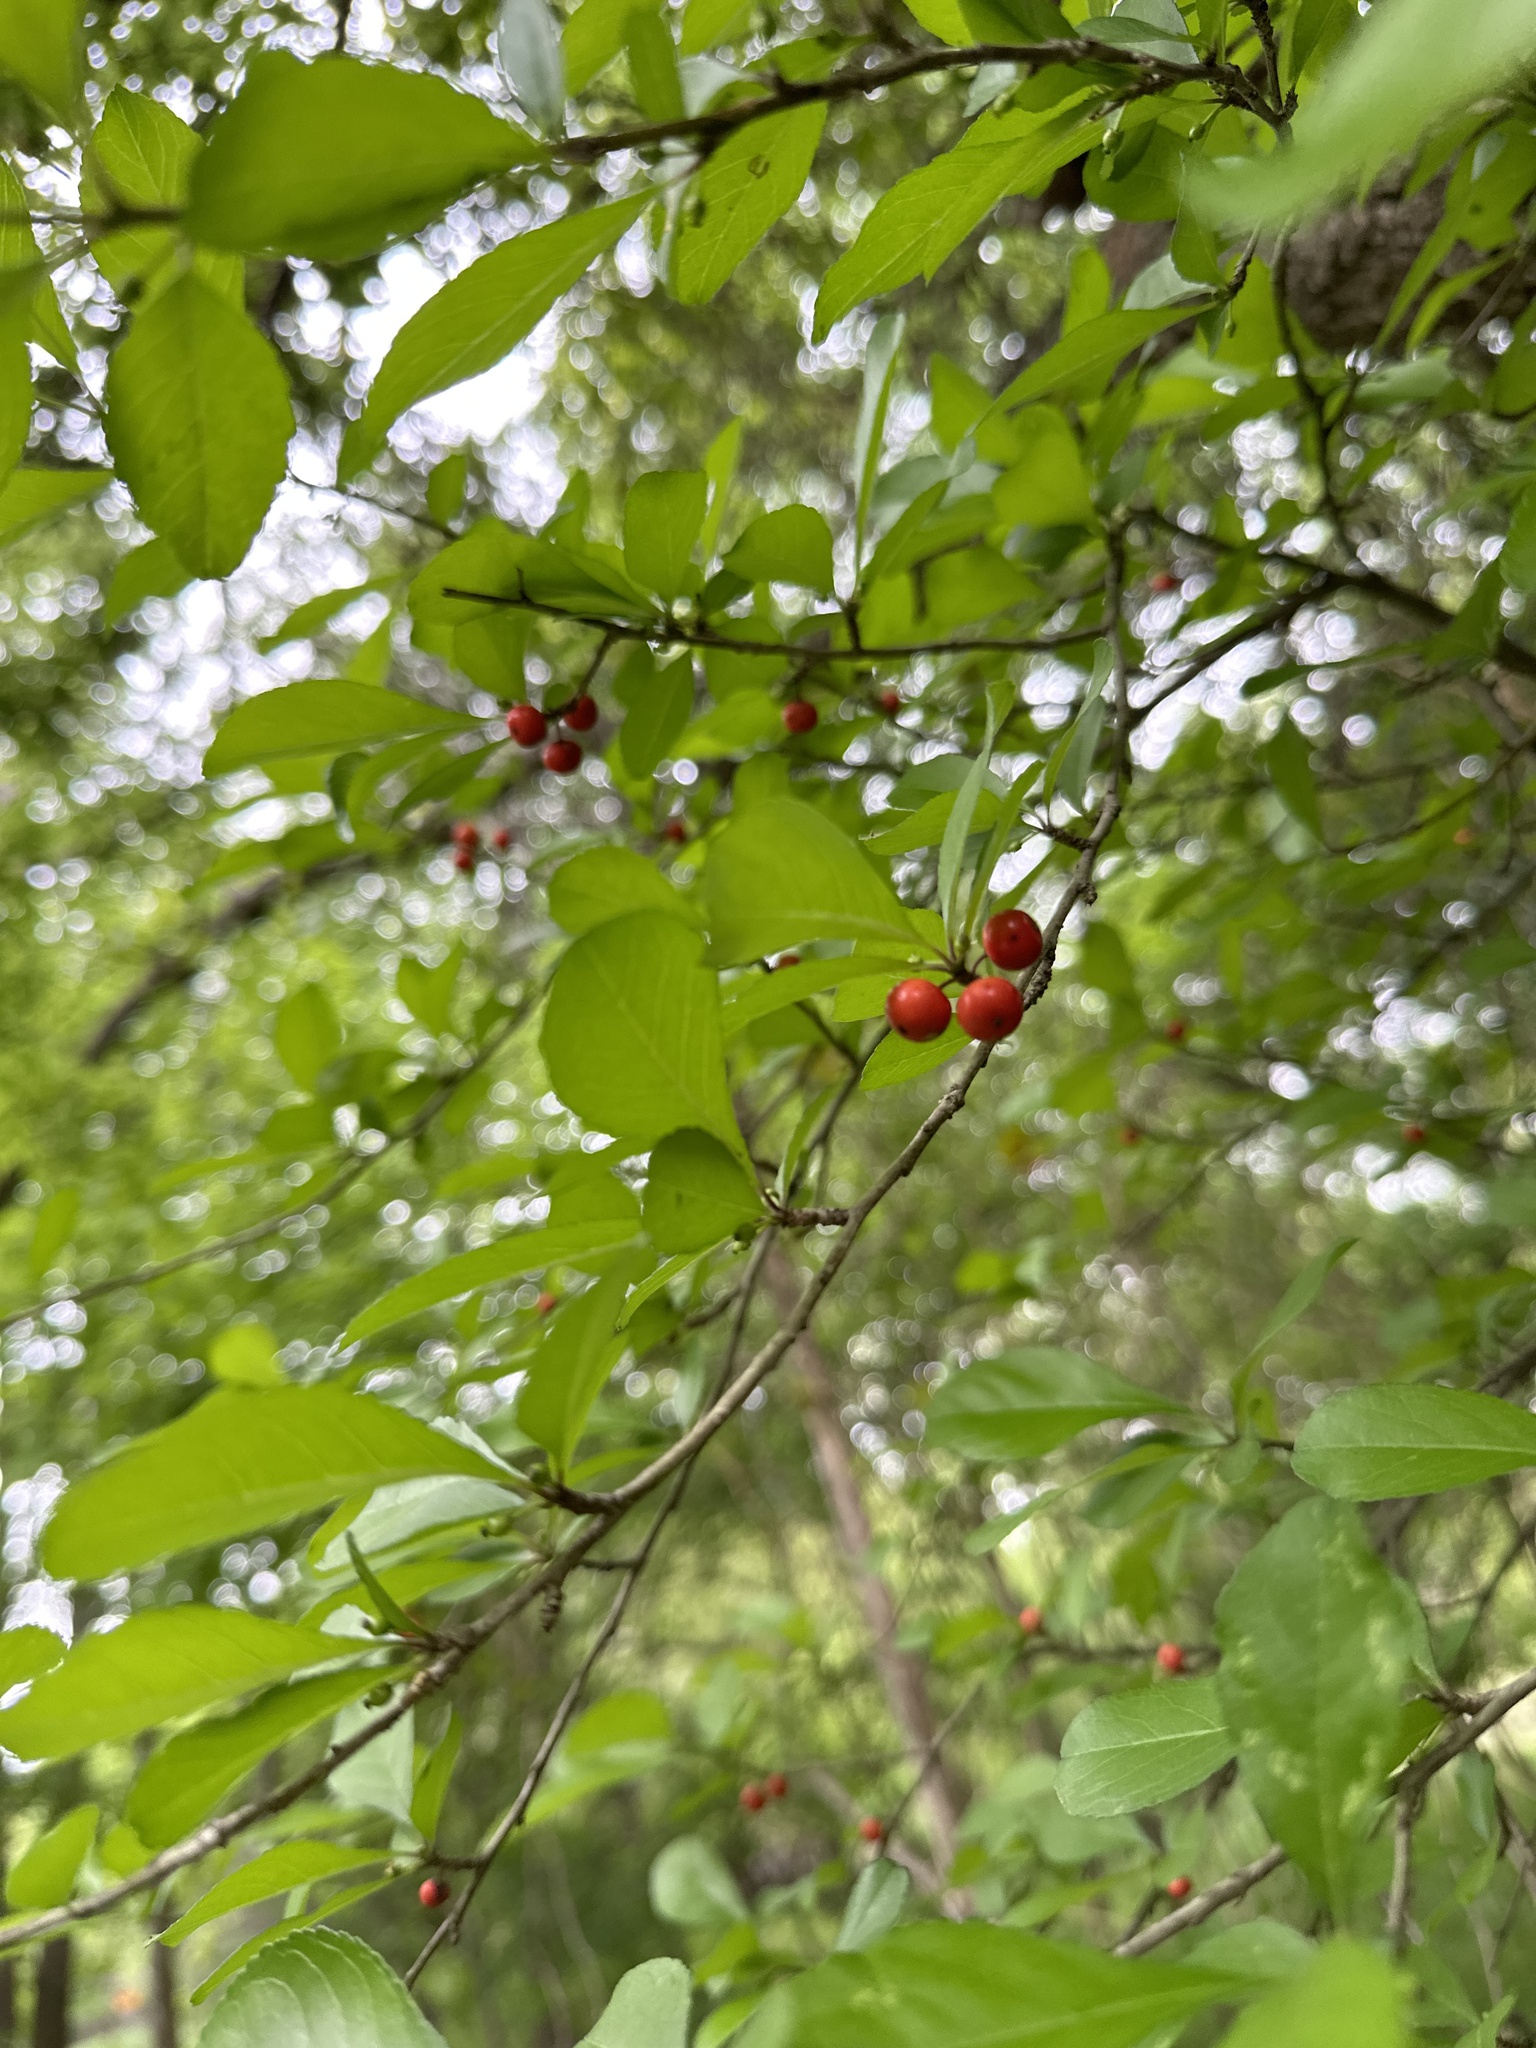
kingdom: Plantae
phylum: Tracheophyta
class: Magnoliopsida
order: Aquifoliales
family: Aquifoliaceae
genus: Ilex
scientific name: Ilex decidua
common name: Possum-haw
